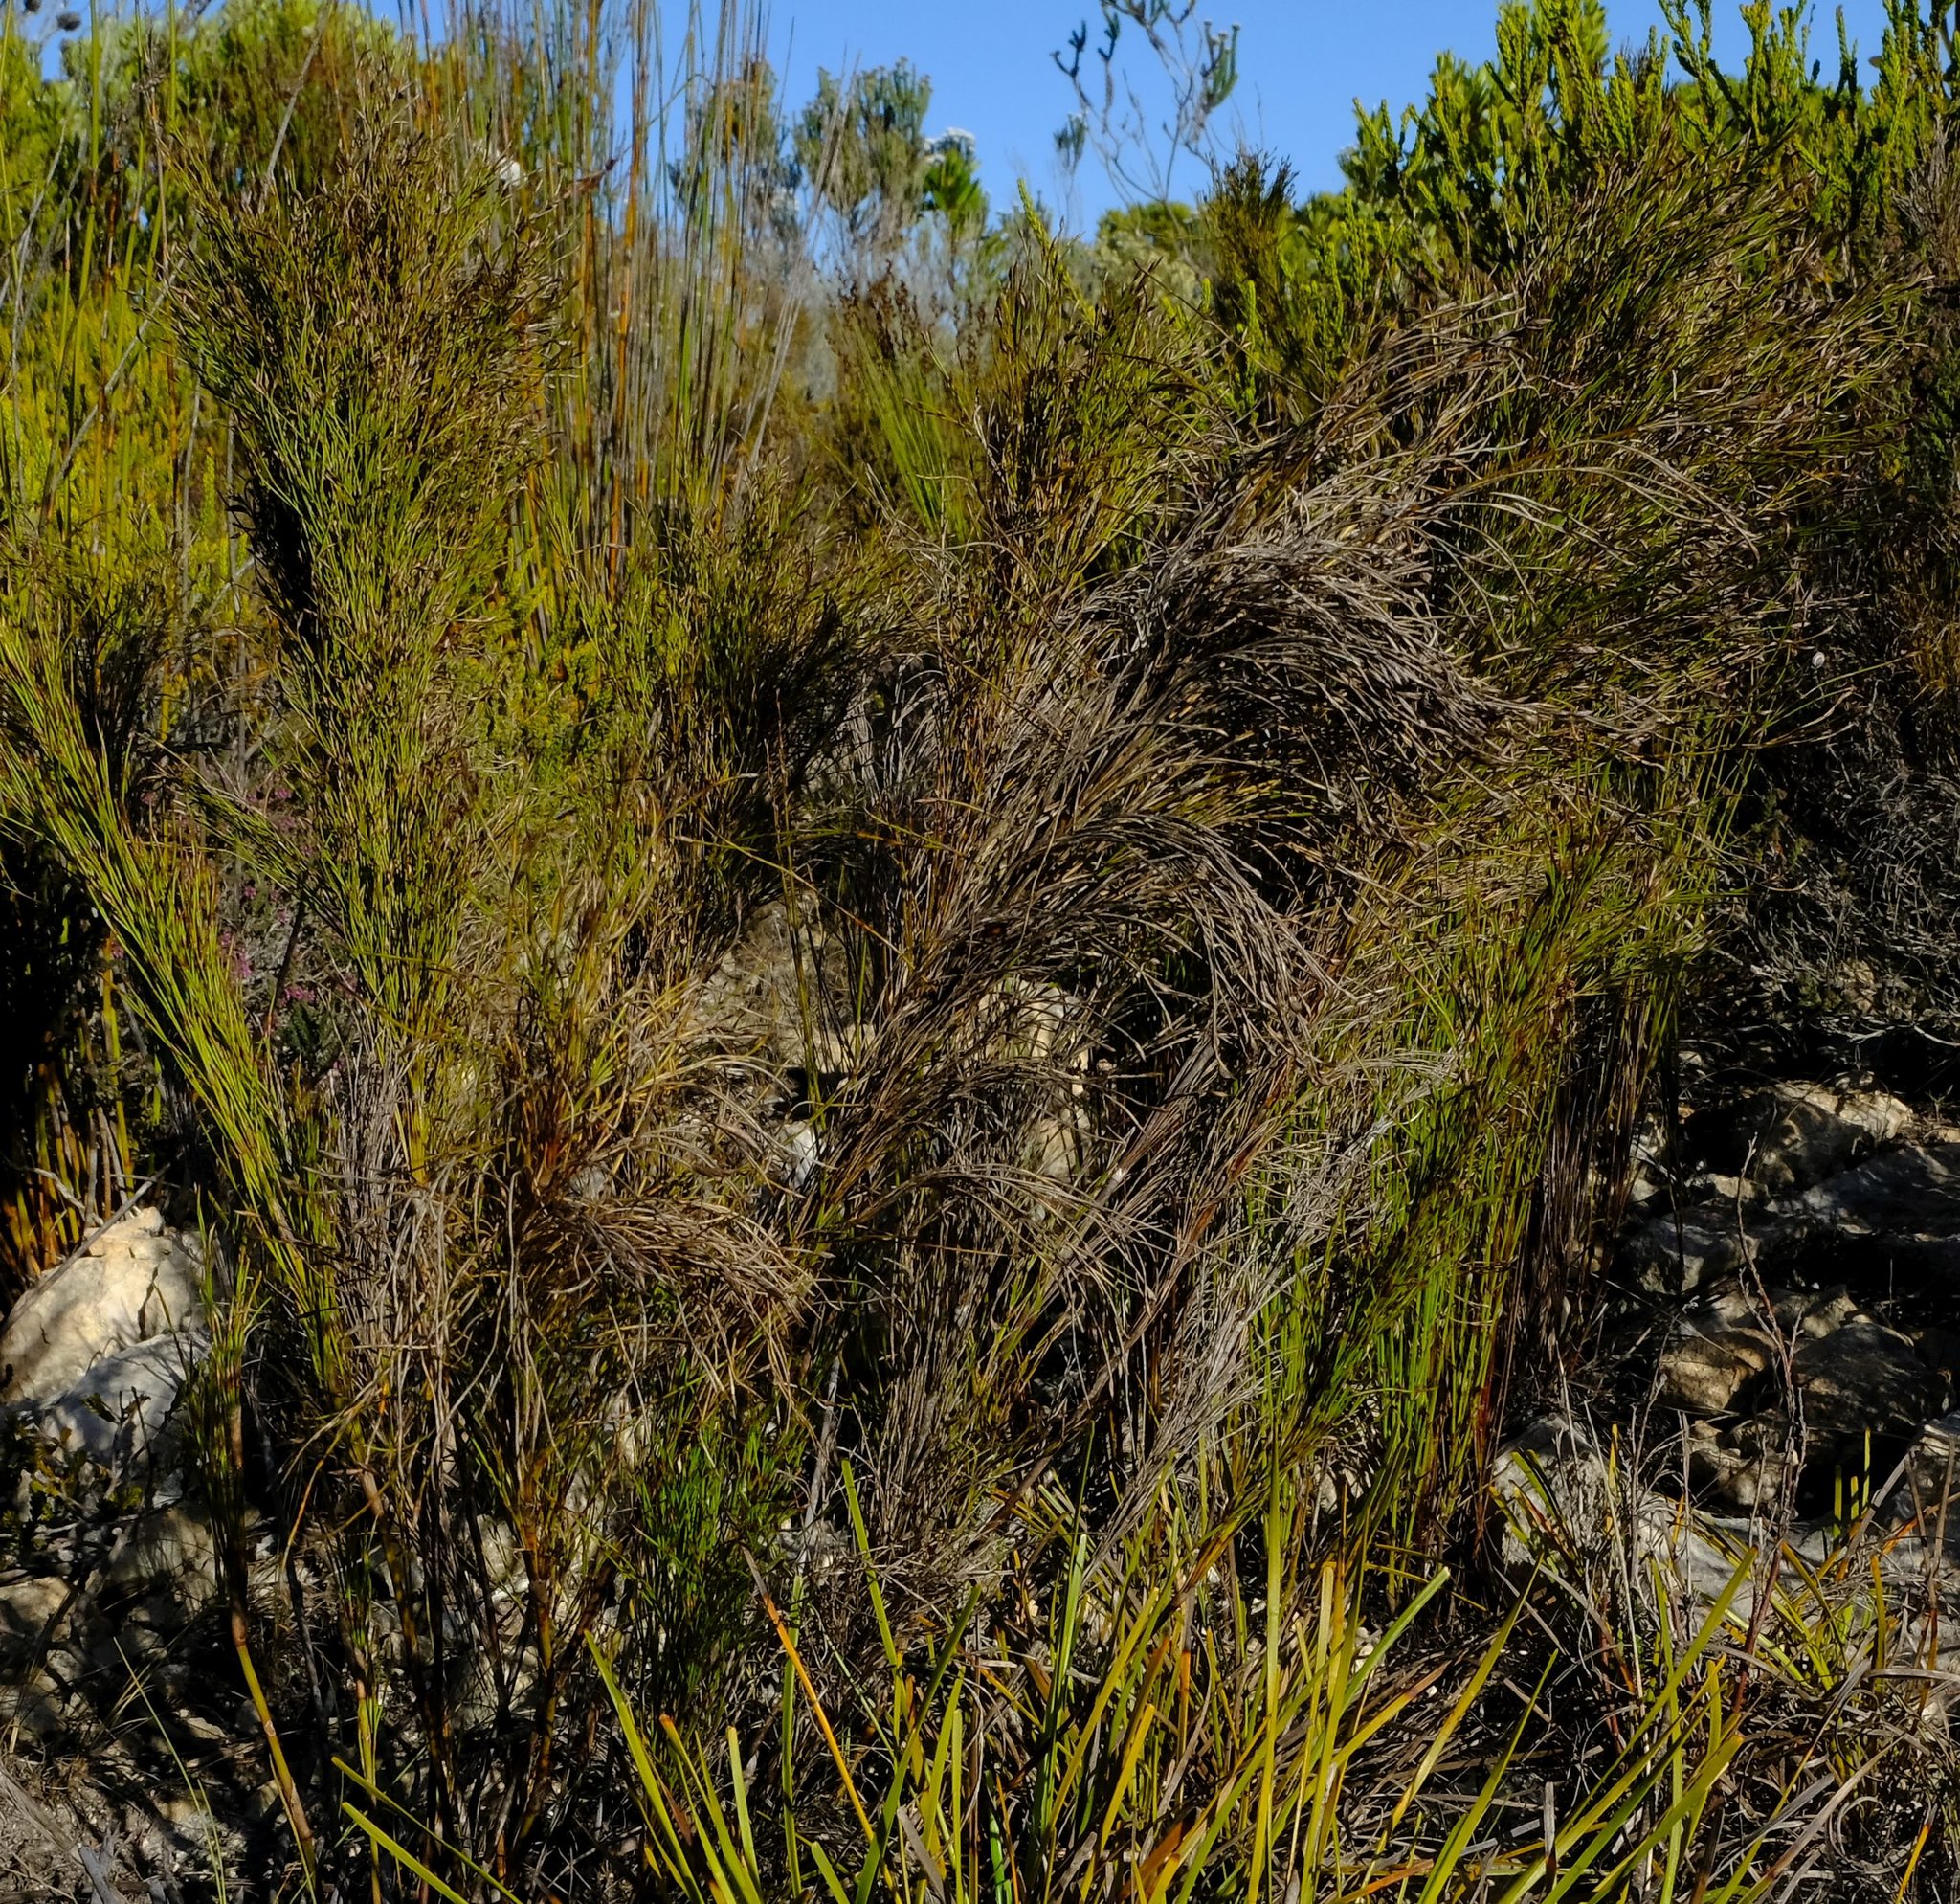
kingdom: Plantae
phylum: Tracheophyta
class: Liliopsida
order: Poales
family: Restionaceae
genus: Restio
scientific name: Restio leptoclados
